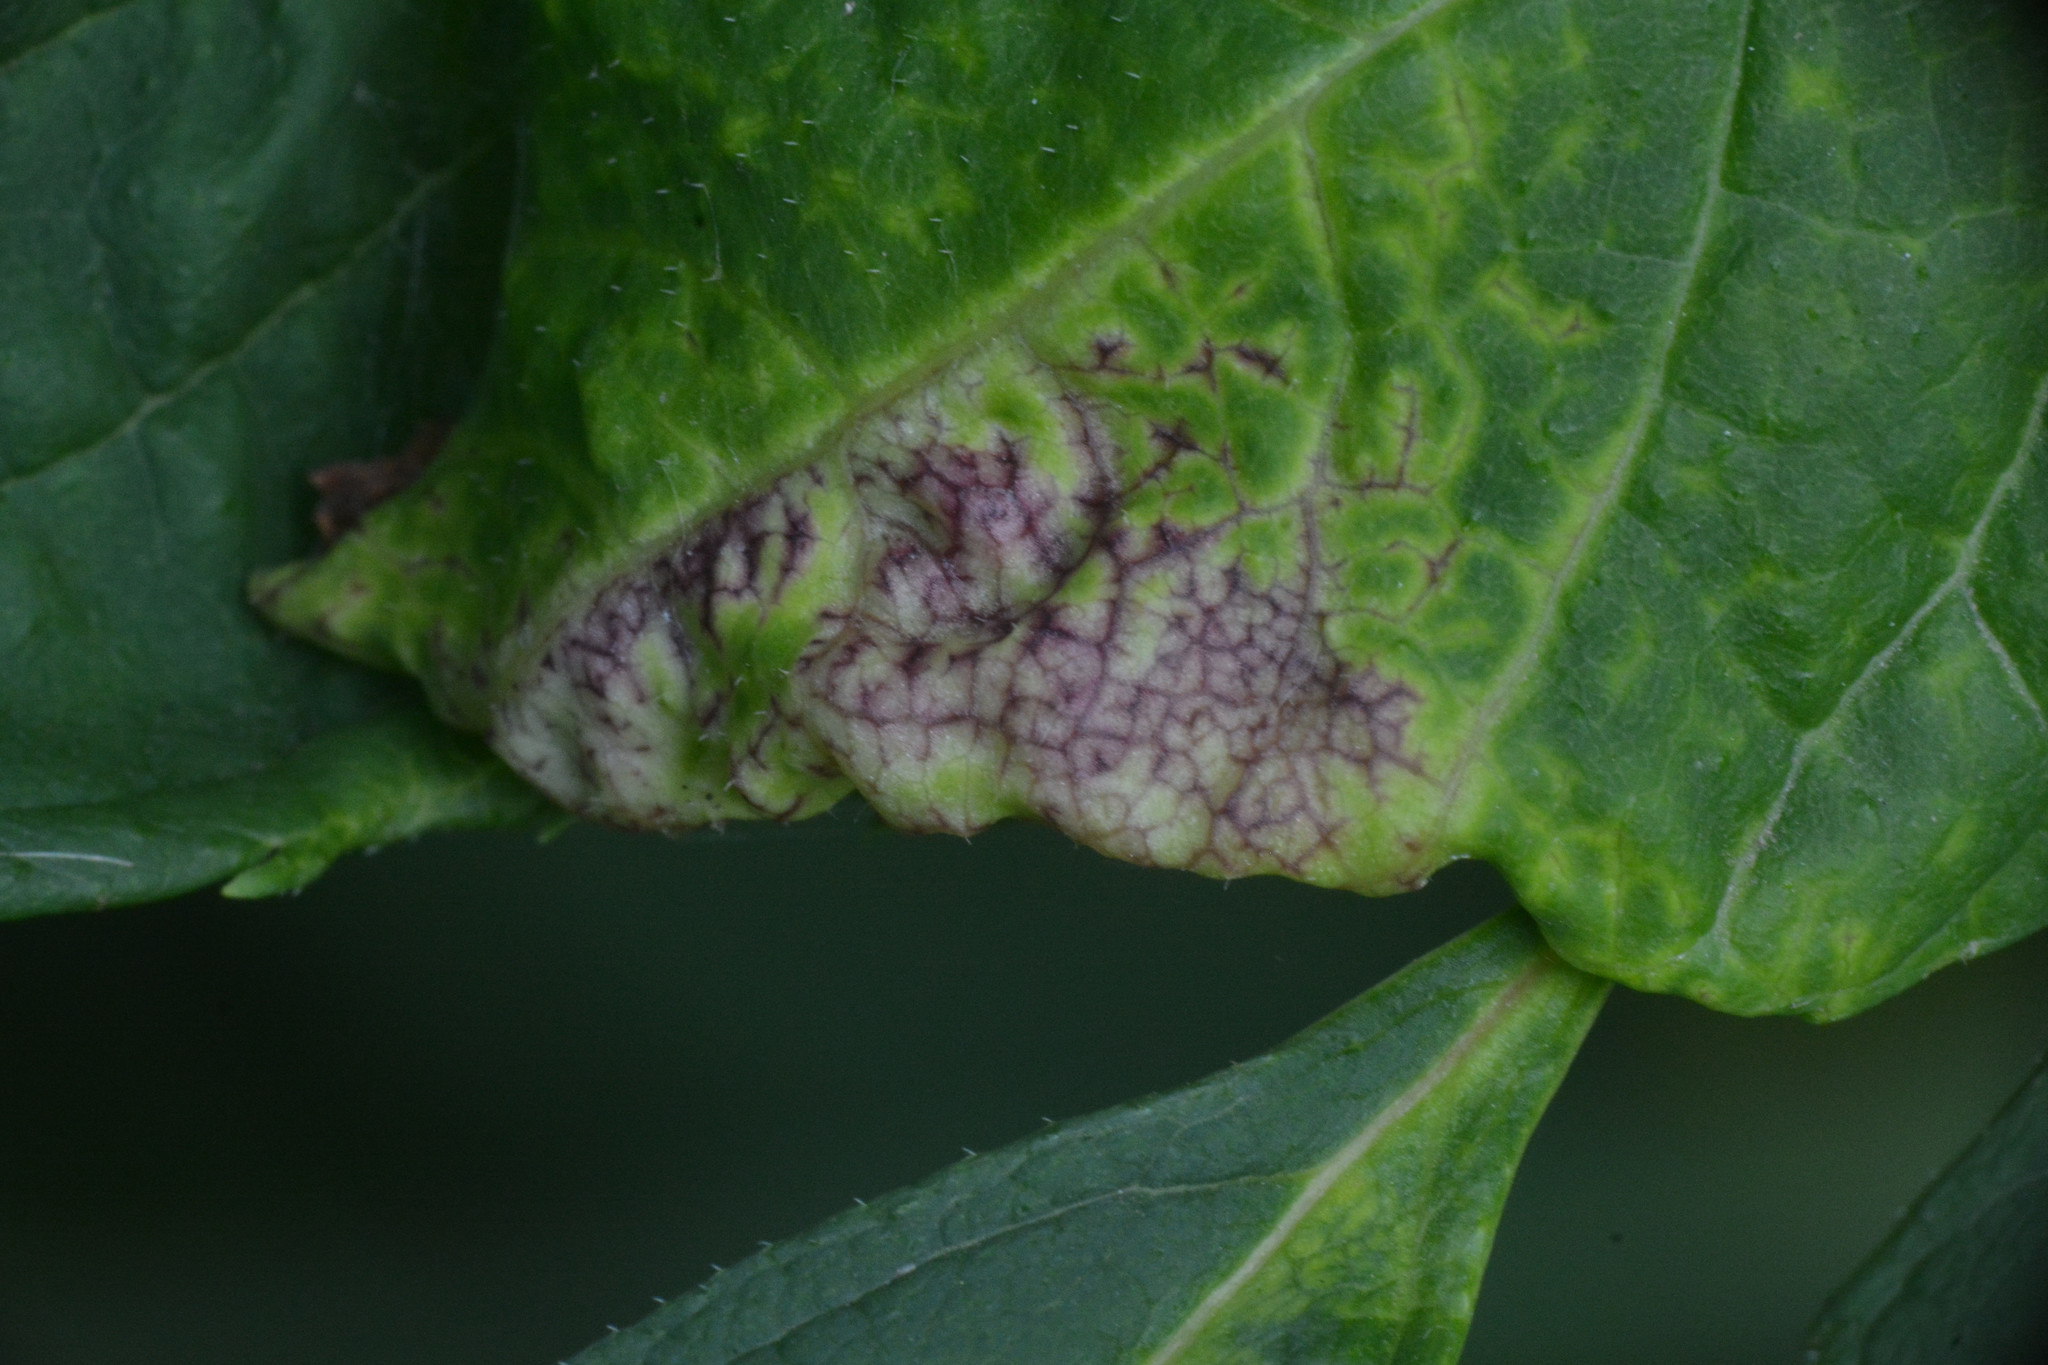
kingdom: Animalia
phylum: Arthropoda
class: Insecta
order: Hemiptera
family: Liviidae
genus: Psyllopsis
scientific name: Psyllopsis fraxini
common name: Jumping plant louse
